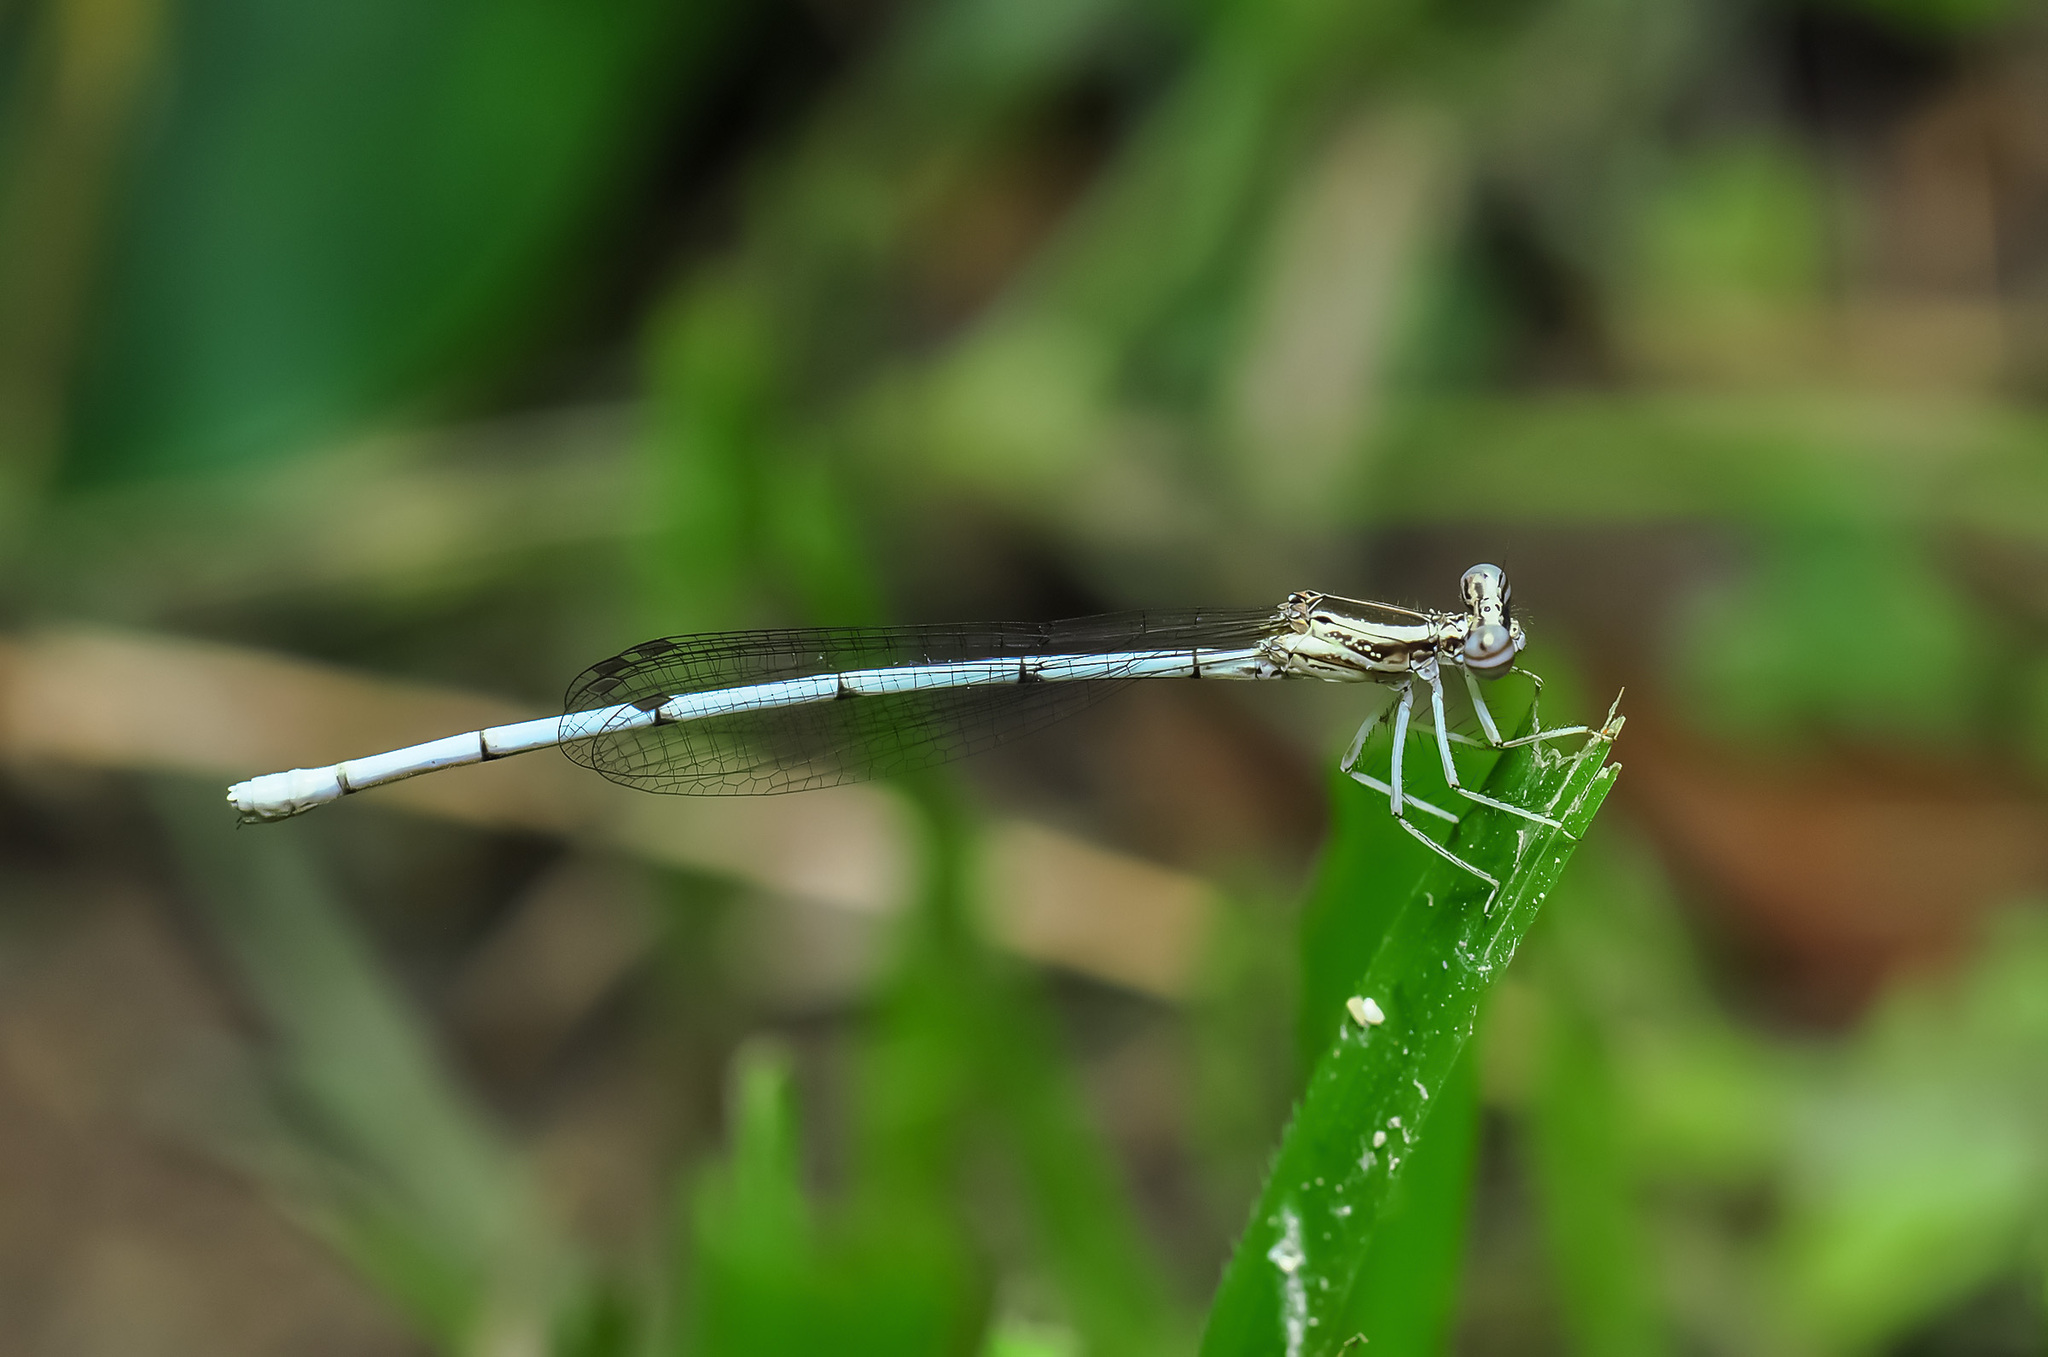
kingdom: Animalia
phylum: Arthropoda
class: Insecta
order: Odonata
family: Platycnemididae
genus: Copera
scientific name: Copera marginipes
